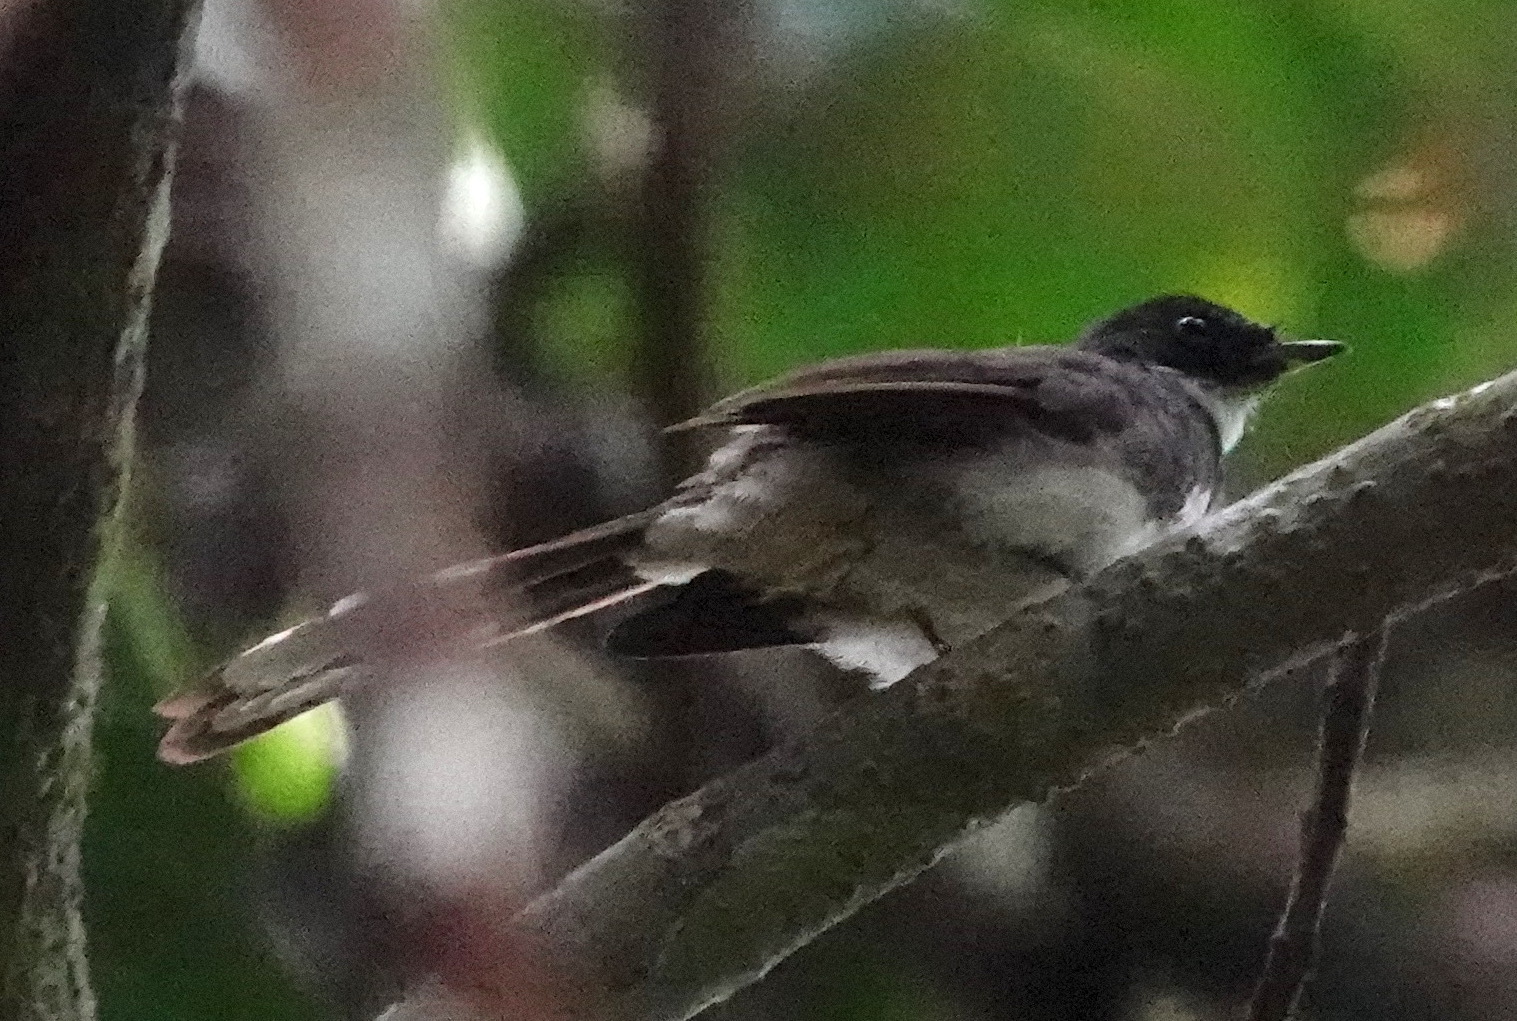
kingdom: Animalia
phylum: Chordata
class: Aves
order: Passeriformes
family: Rhipiduridae
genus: Rhipidura
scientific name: Rhipidura javanica
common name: Pied fantail
